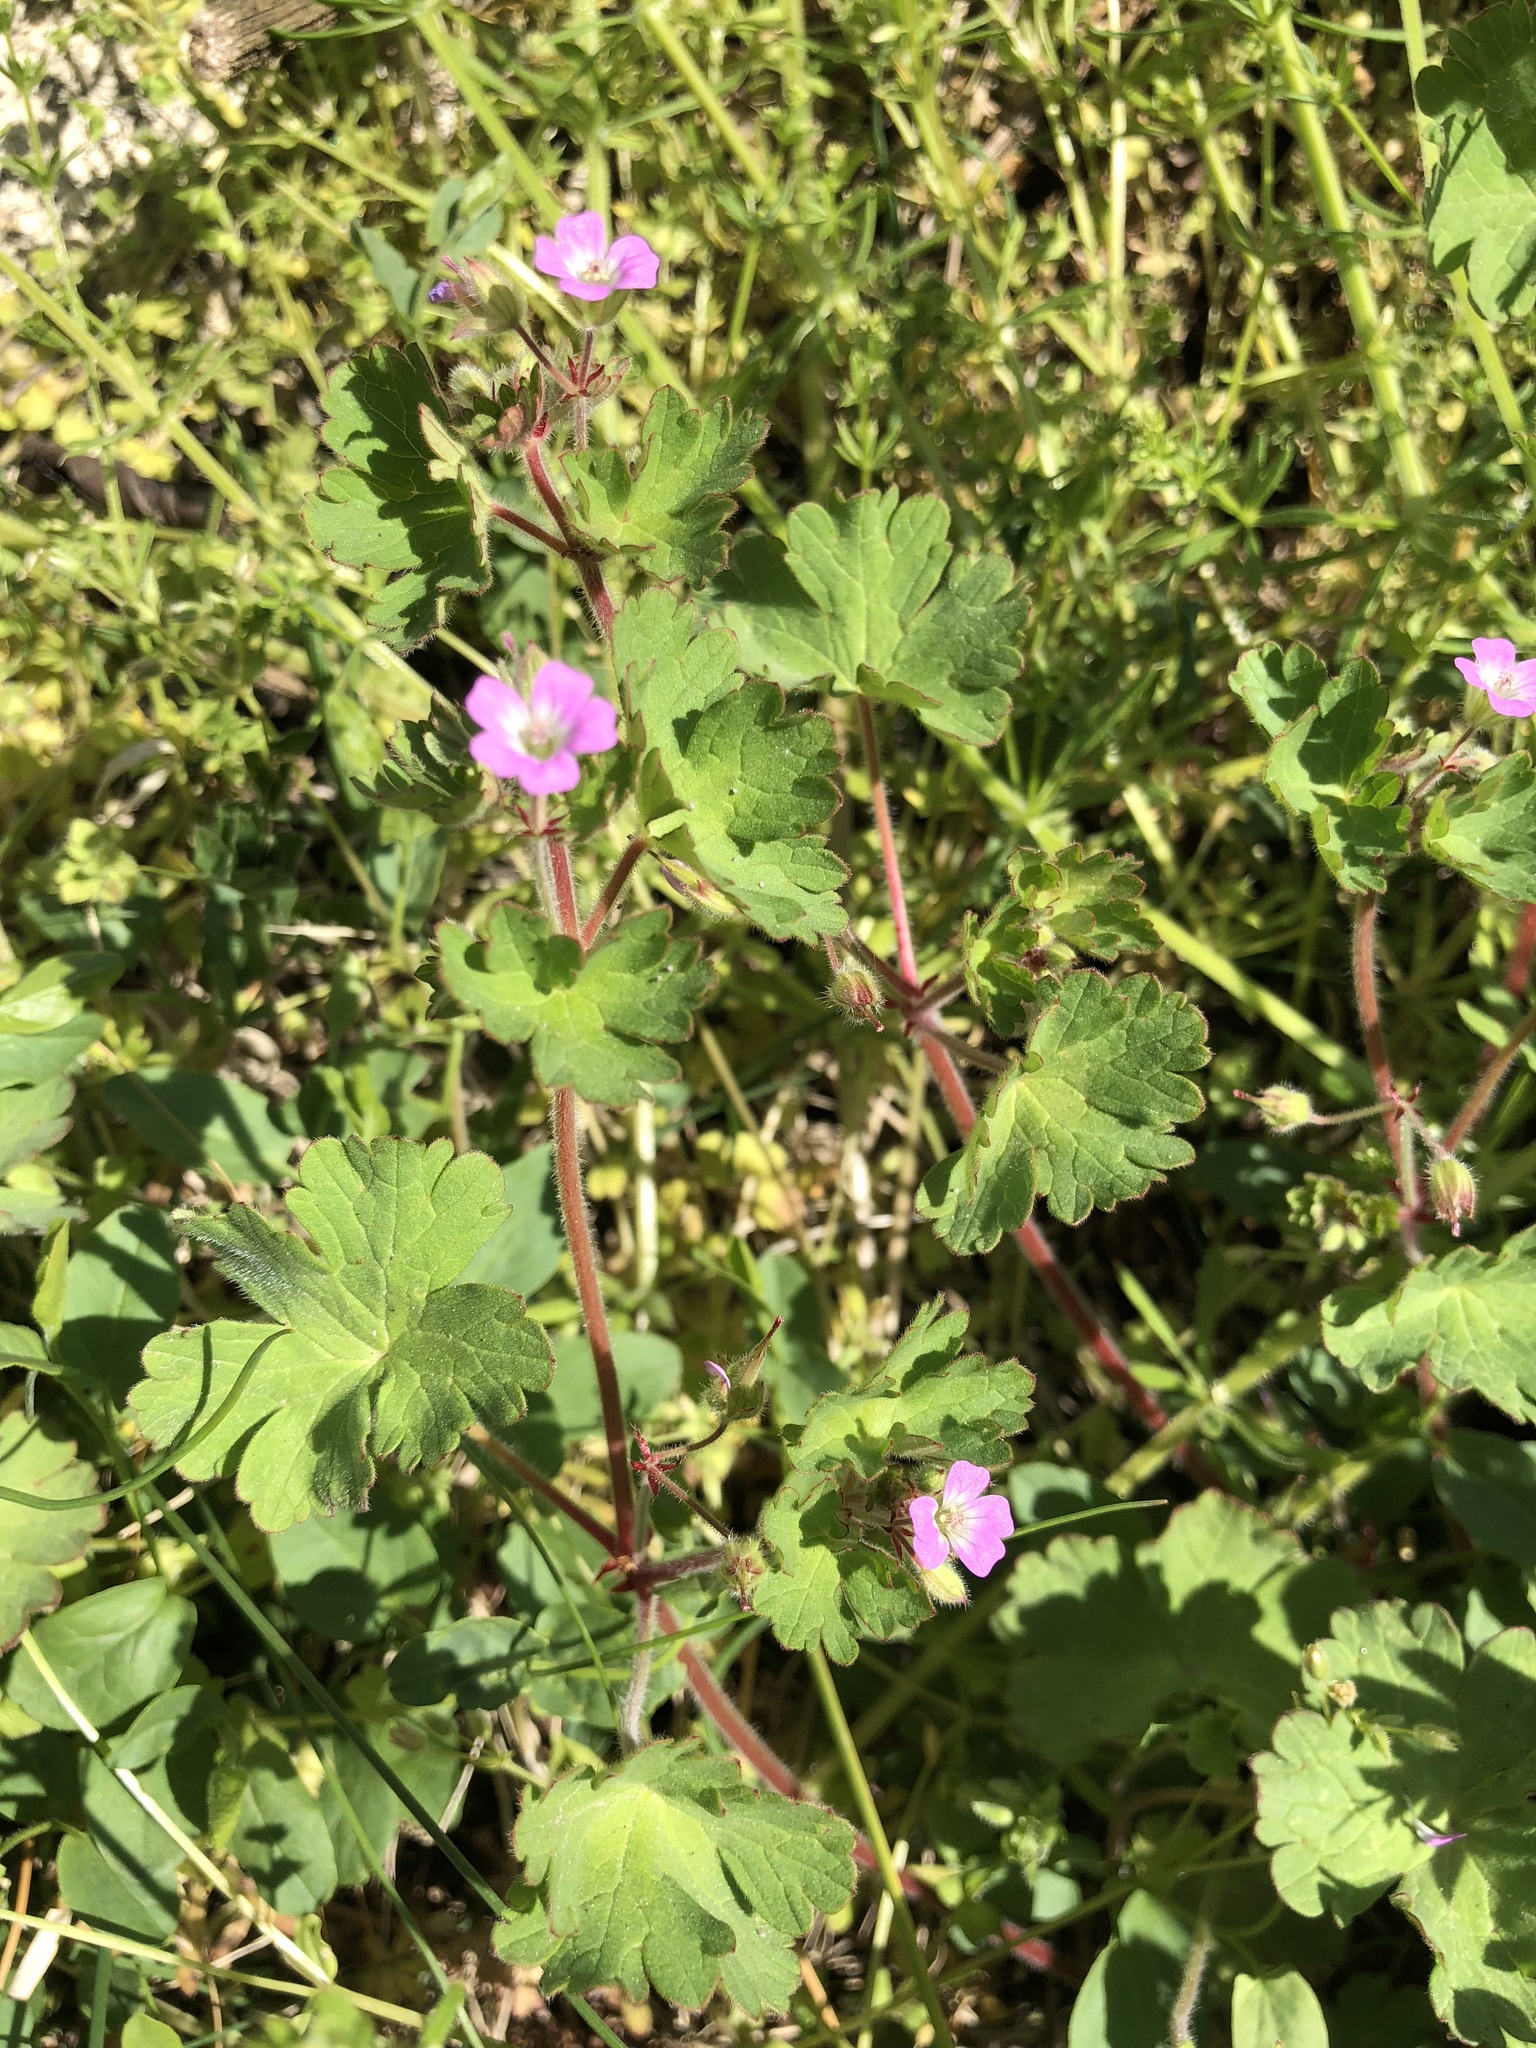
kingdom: Plantae
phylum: Tracheophyta
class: Magnoliopsida
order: Geraniales
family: Geraniaceae
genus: Geranium
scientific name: Geranium rotundifolium
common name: Round-leaved crane's-bill
